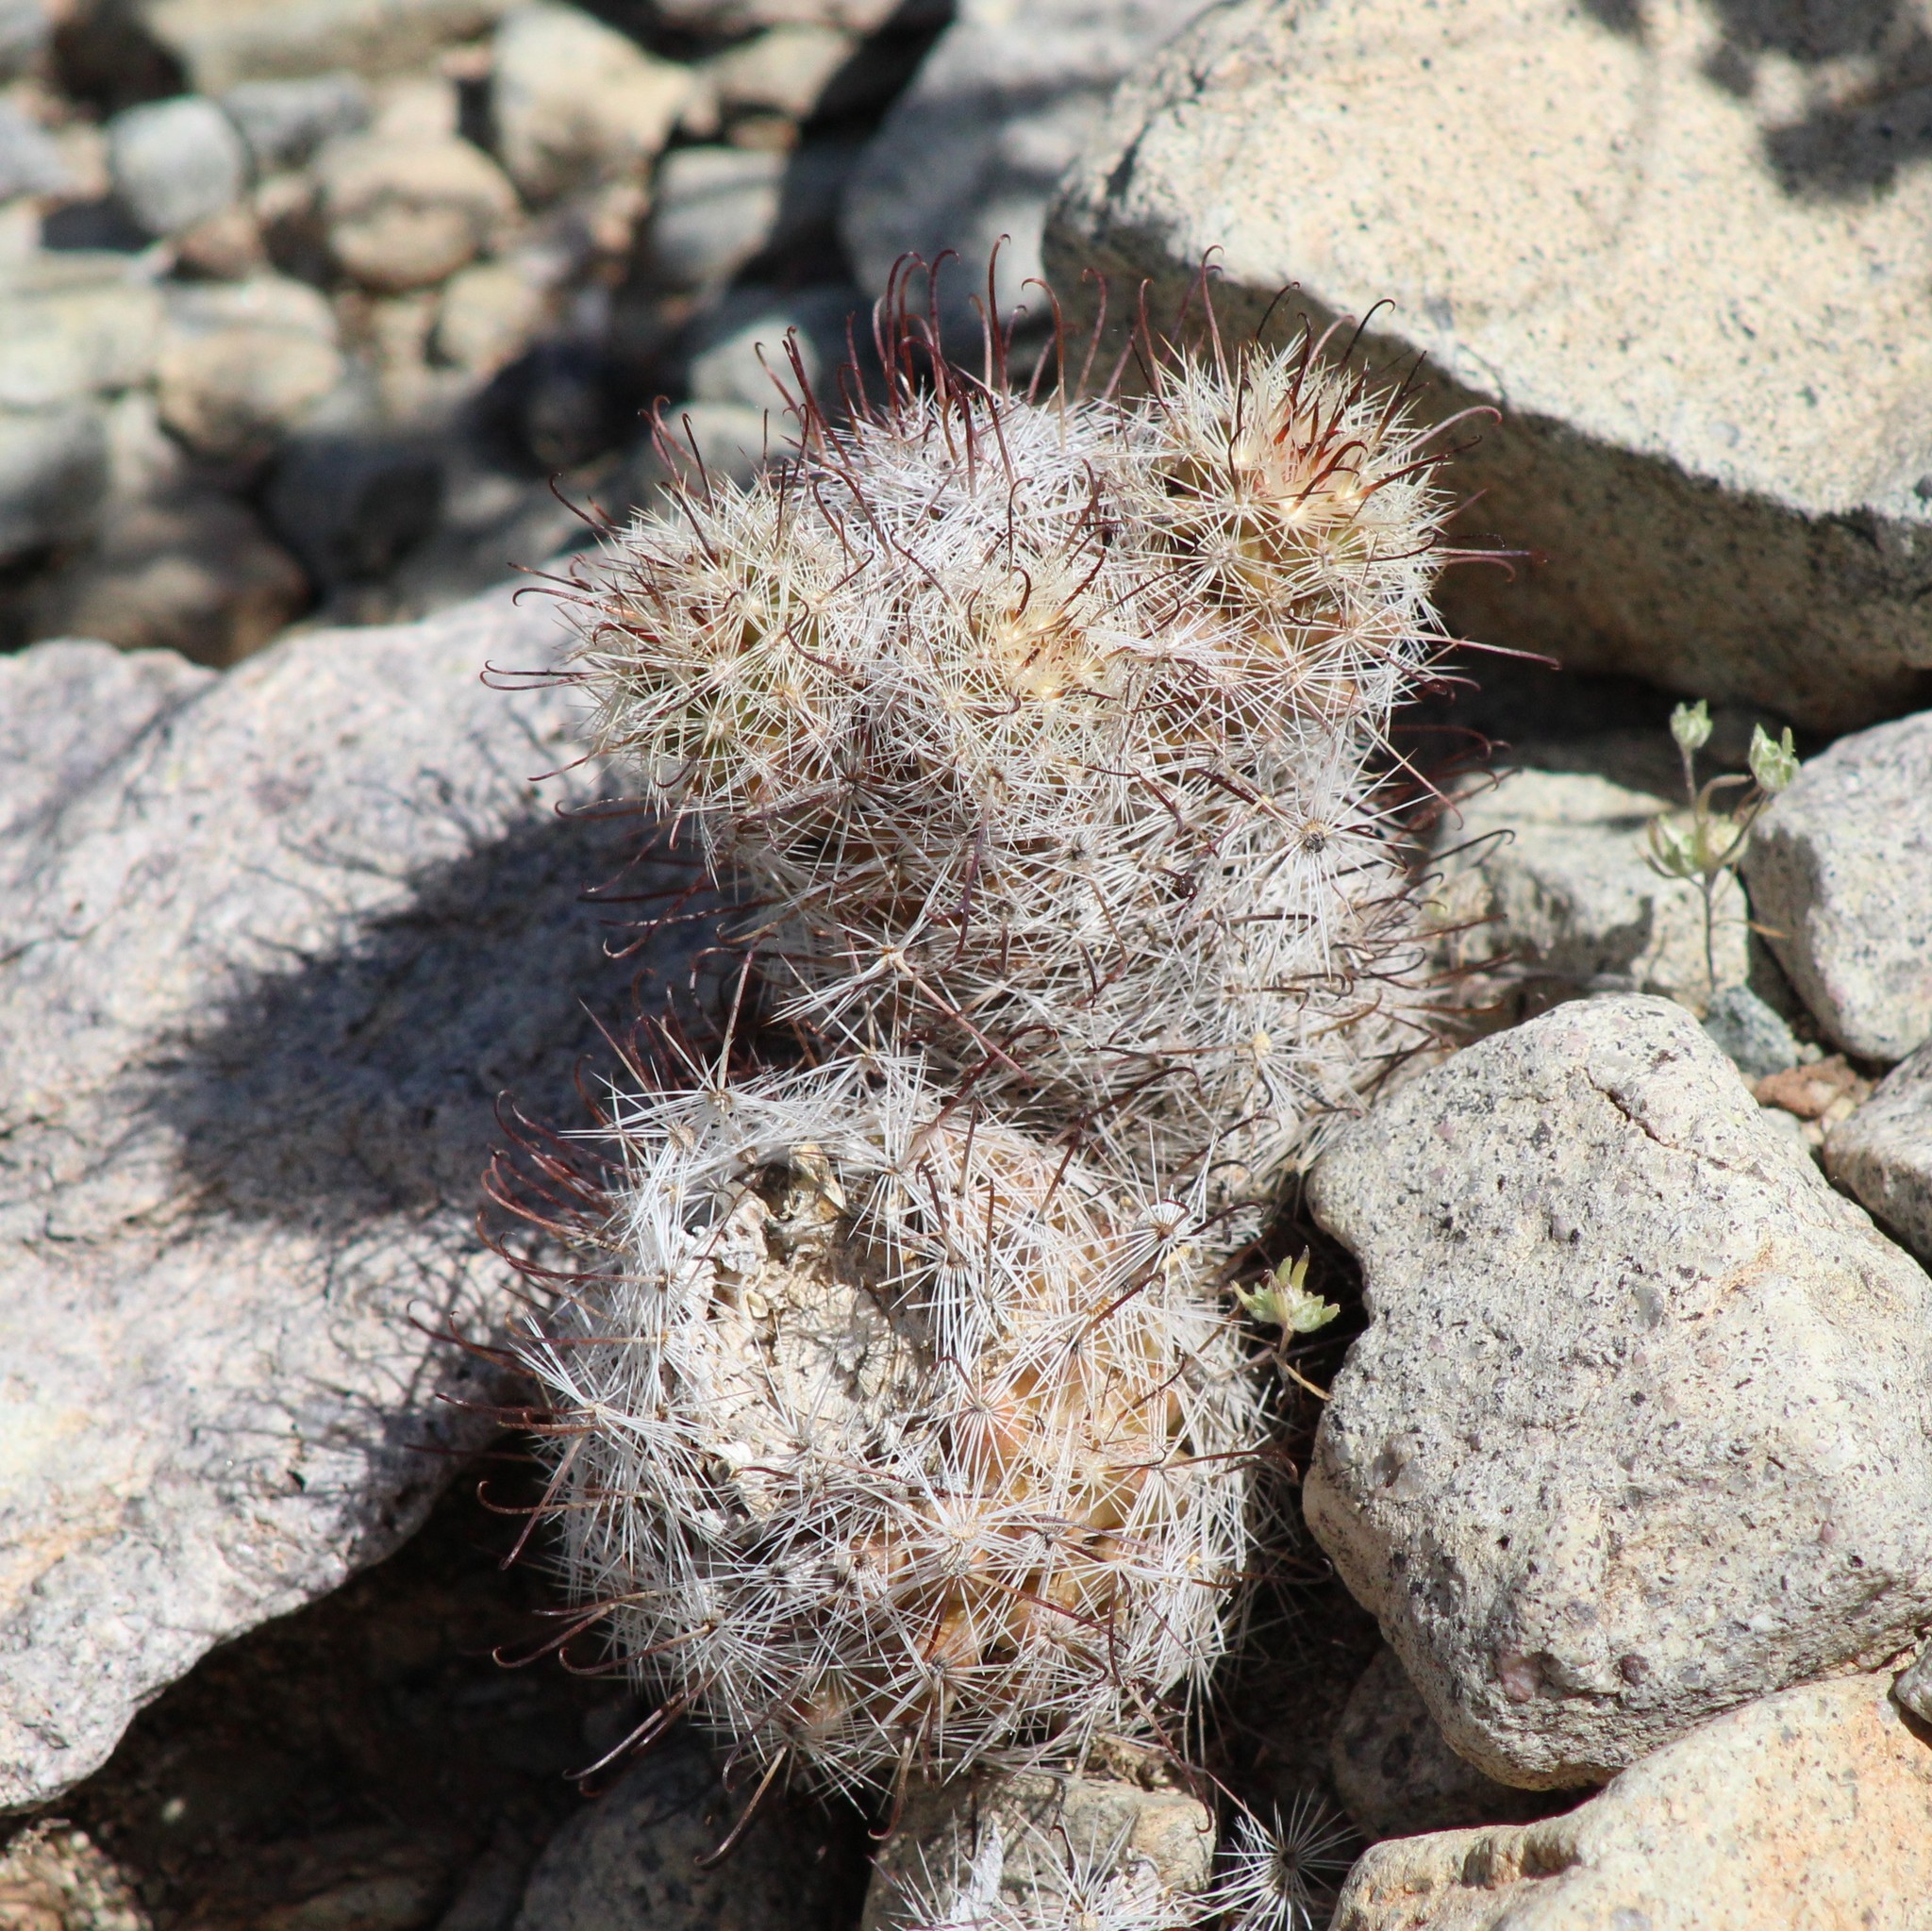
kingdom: Plantae
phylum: Tracheophyta
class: Magnoliopsida
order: Caryophyllales
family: Cactaceae
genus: Cochemiea
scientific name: Cochemiea grahamii
